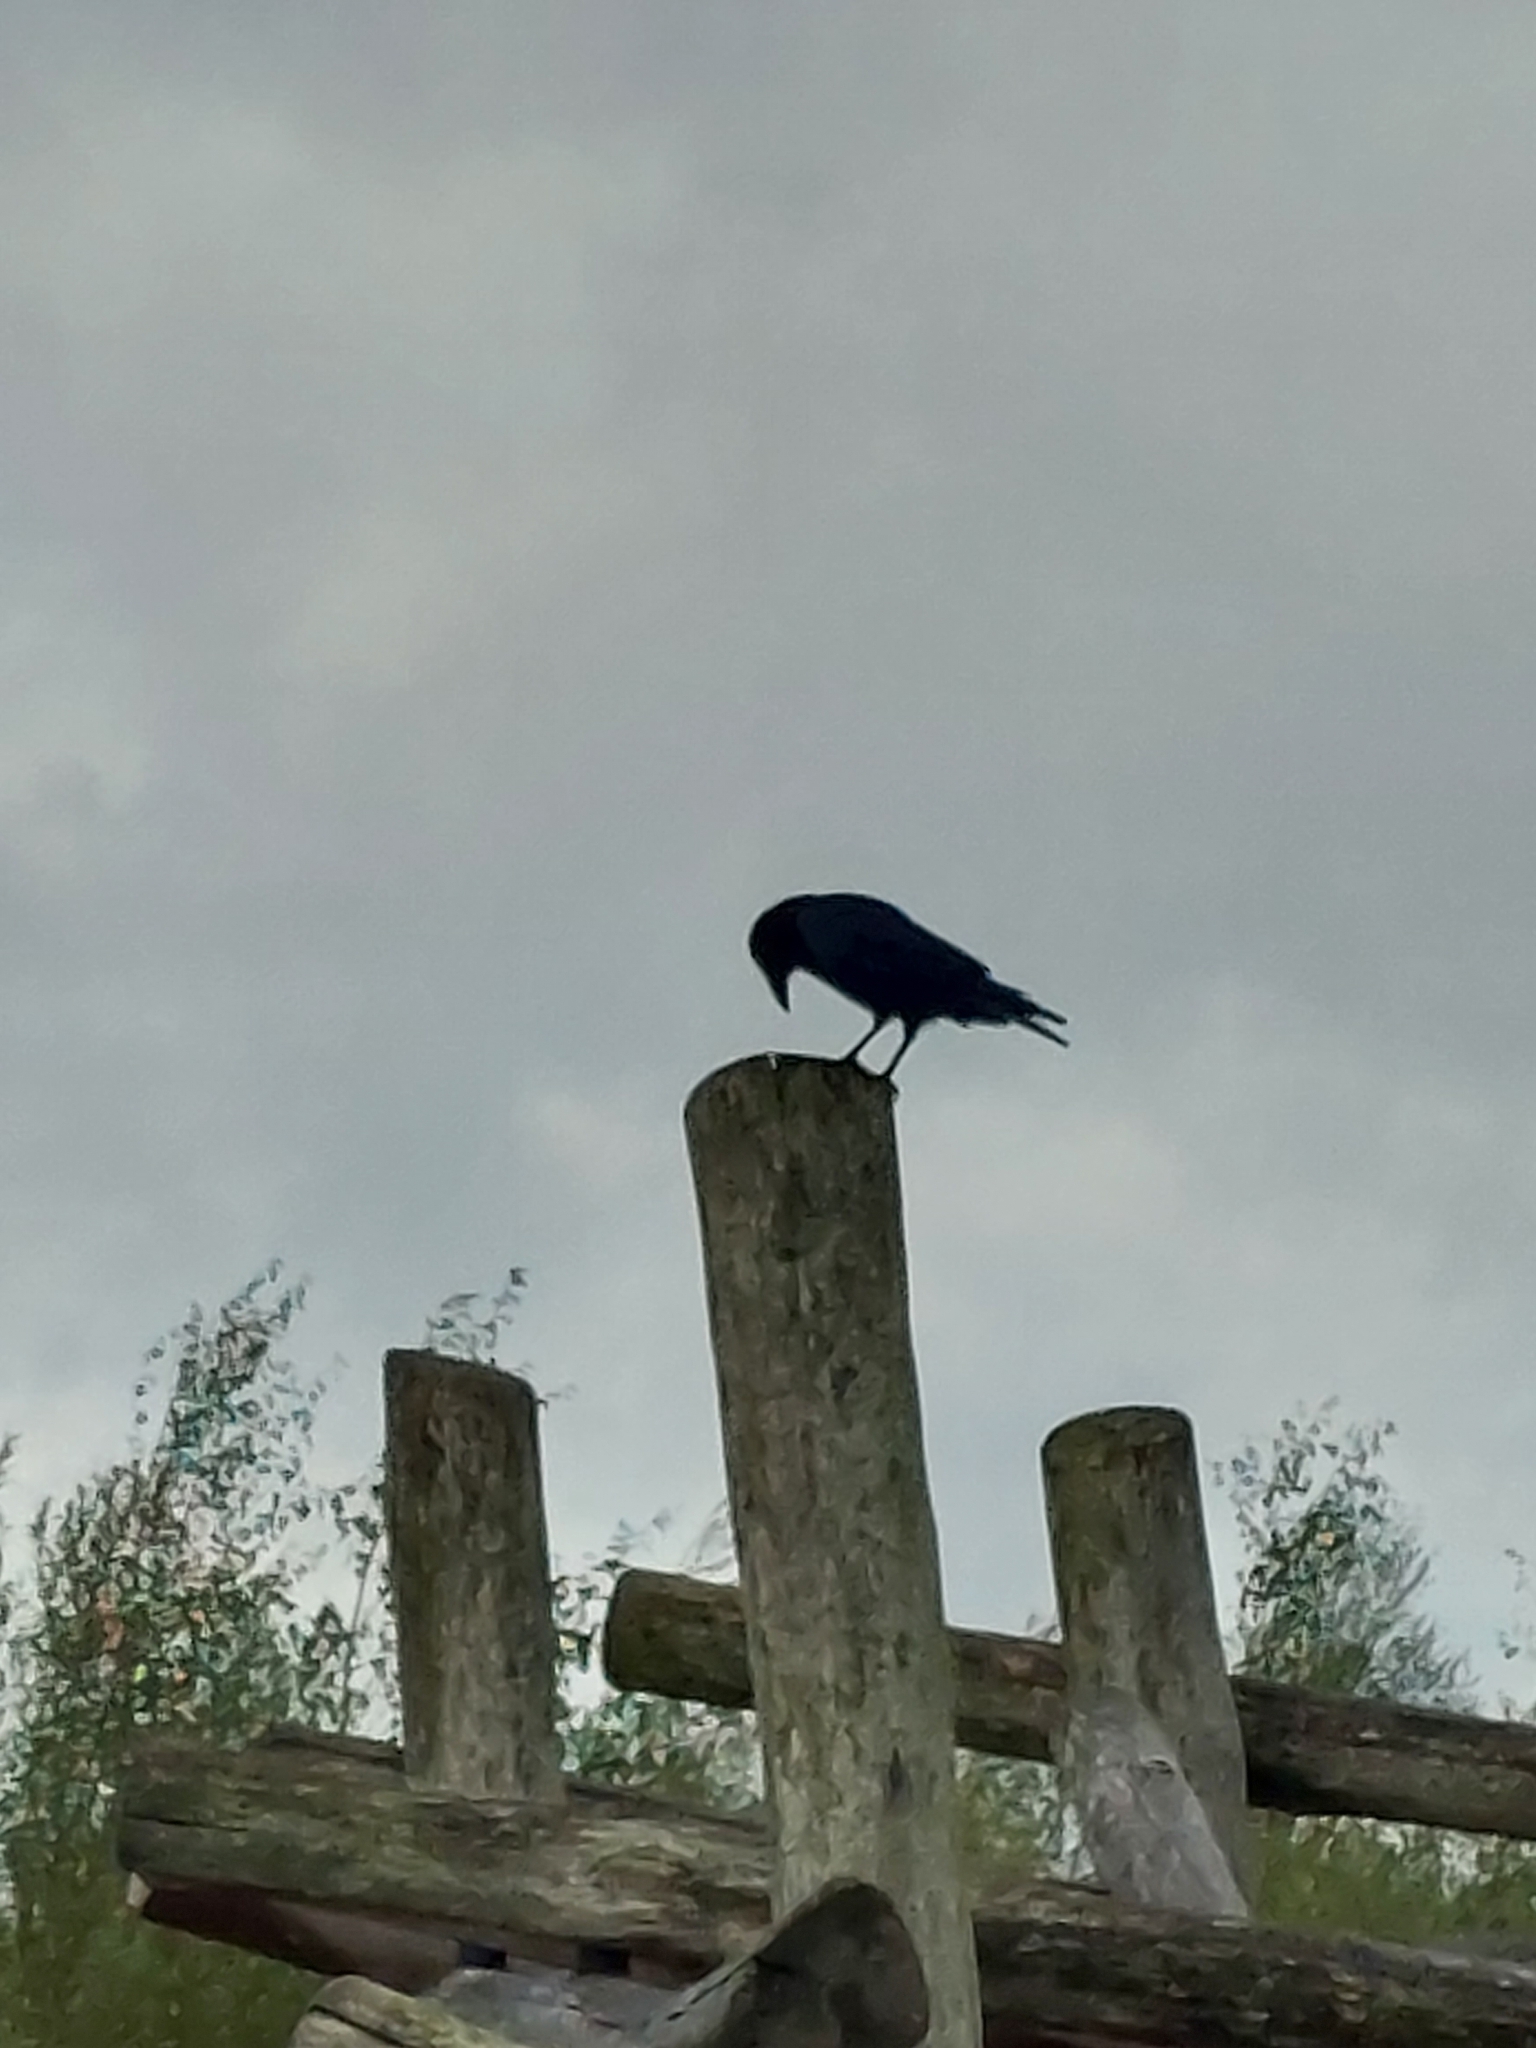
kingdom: Animalia
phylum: Chordata
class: Aves
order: Passeriformes
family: Corvidae
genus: Corvus
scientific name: Corvus corone
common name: Carrion crow
